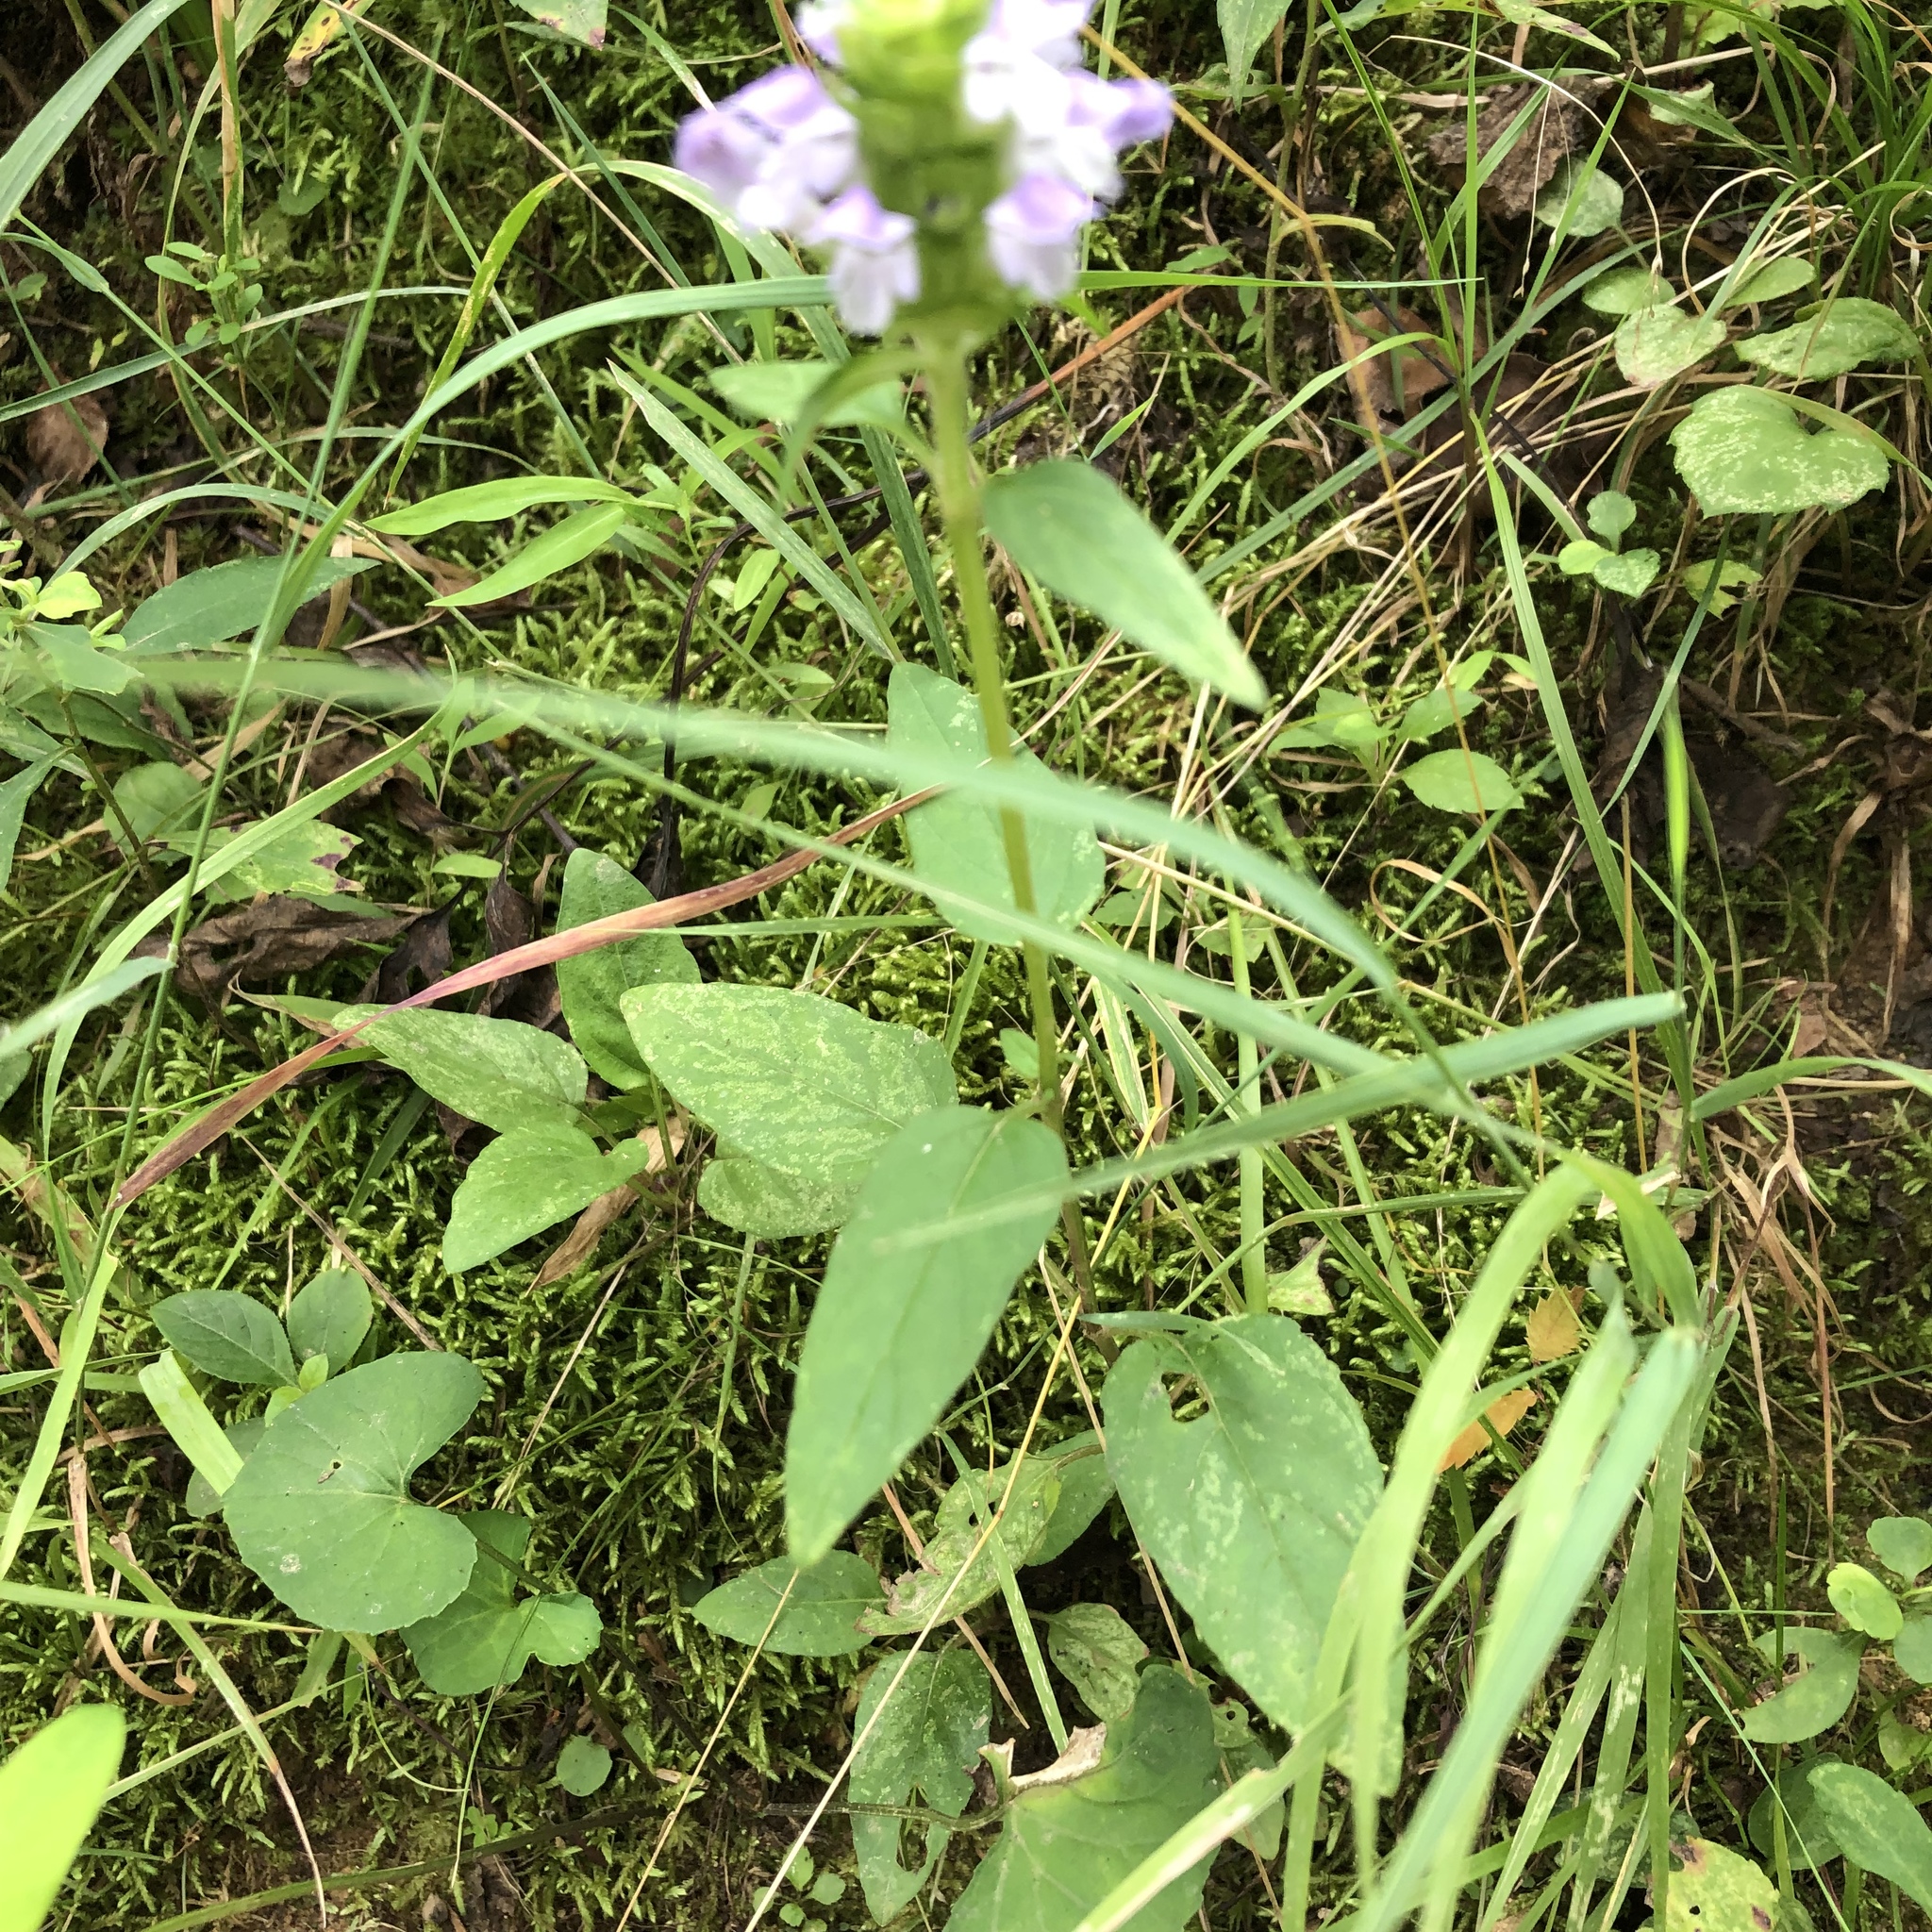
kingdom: Plantae
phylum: Tracheophyta
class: Magnoliopsida
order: Lamiales
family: Lamiaceae
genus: Prunella
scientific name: Prunella vulgaris
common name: Heal-all
